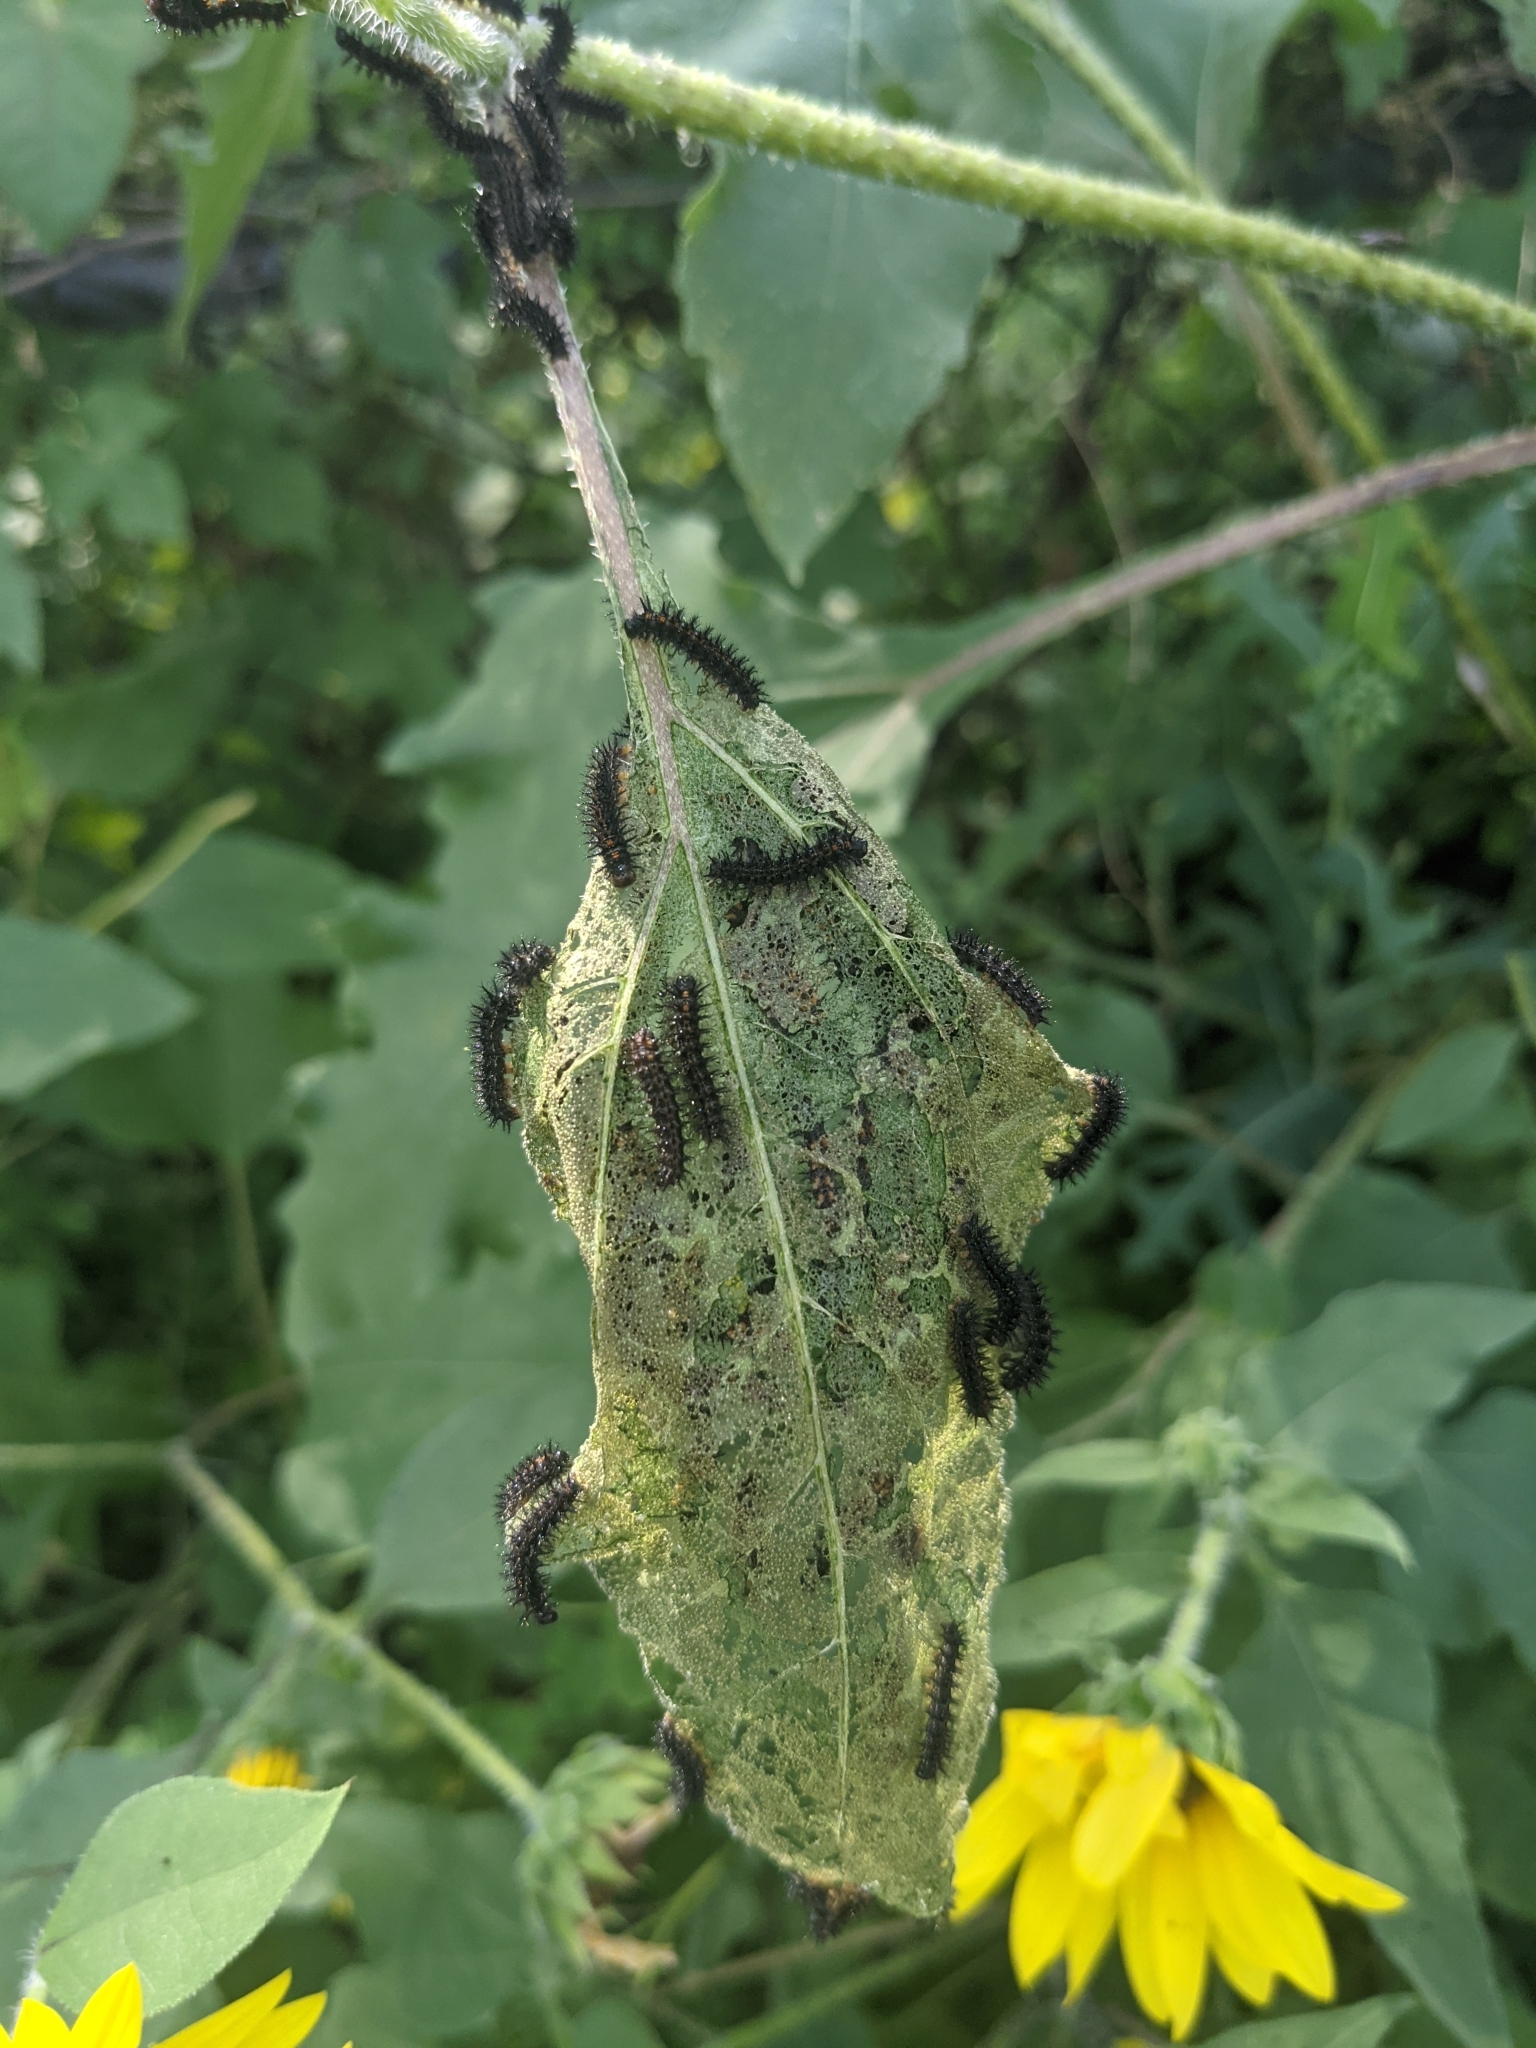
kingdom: Animalia
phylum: Arthropoda
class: Insecta
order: Lepidoptera
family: Nymphalidae
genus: Chlosyne
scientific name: Chlosyne lacinia
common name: Bordered patch
